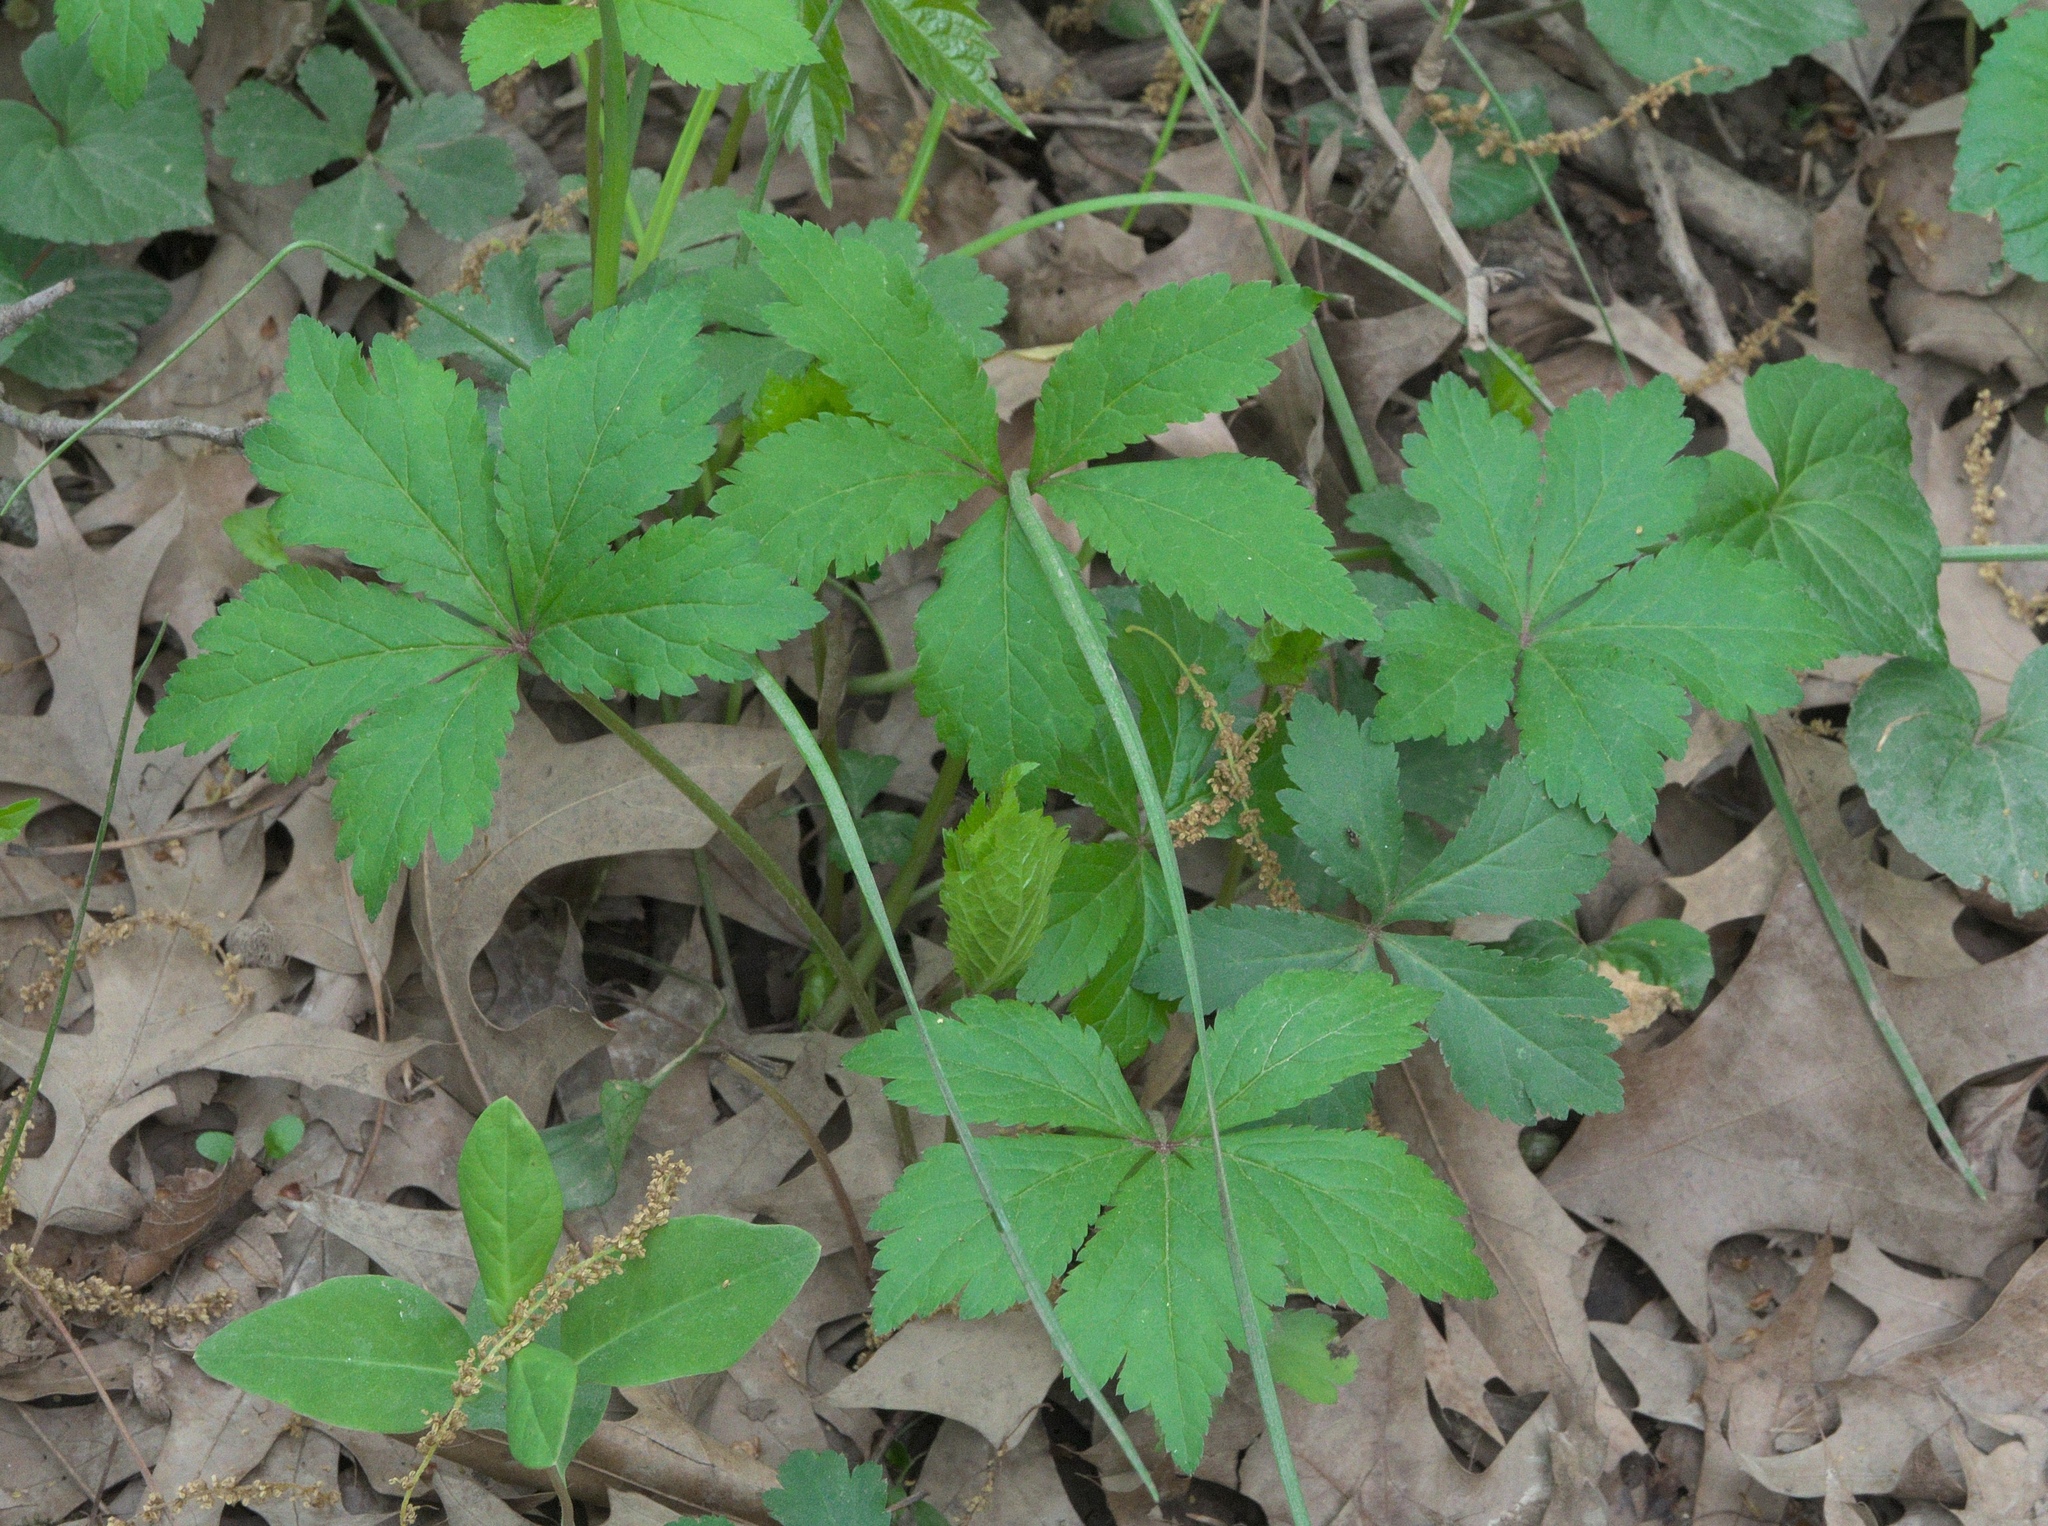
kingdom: Plantae
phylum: Tracheophyta
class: Magnoliopsida
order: Apiales
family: Apiaceae
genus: Sanicula
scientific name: Sanicula odorata
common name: Cluster sanicle
